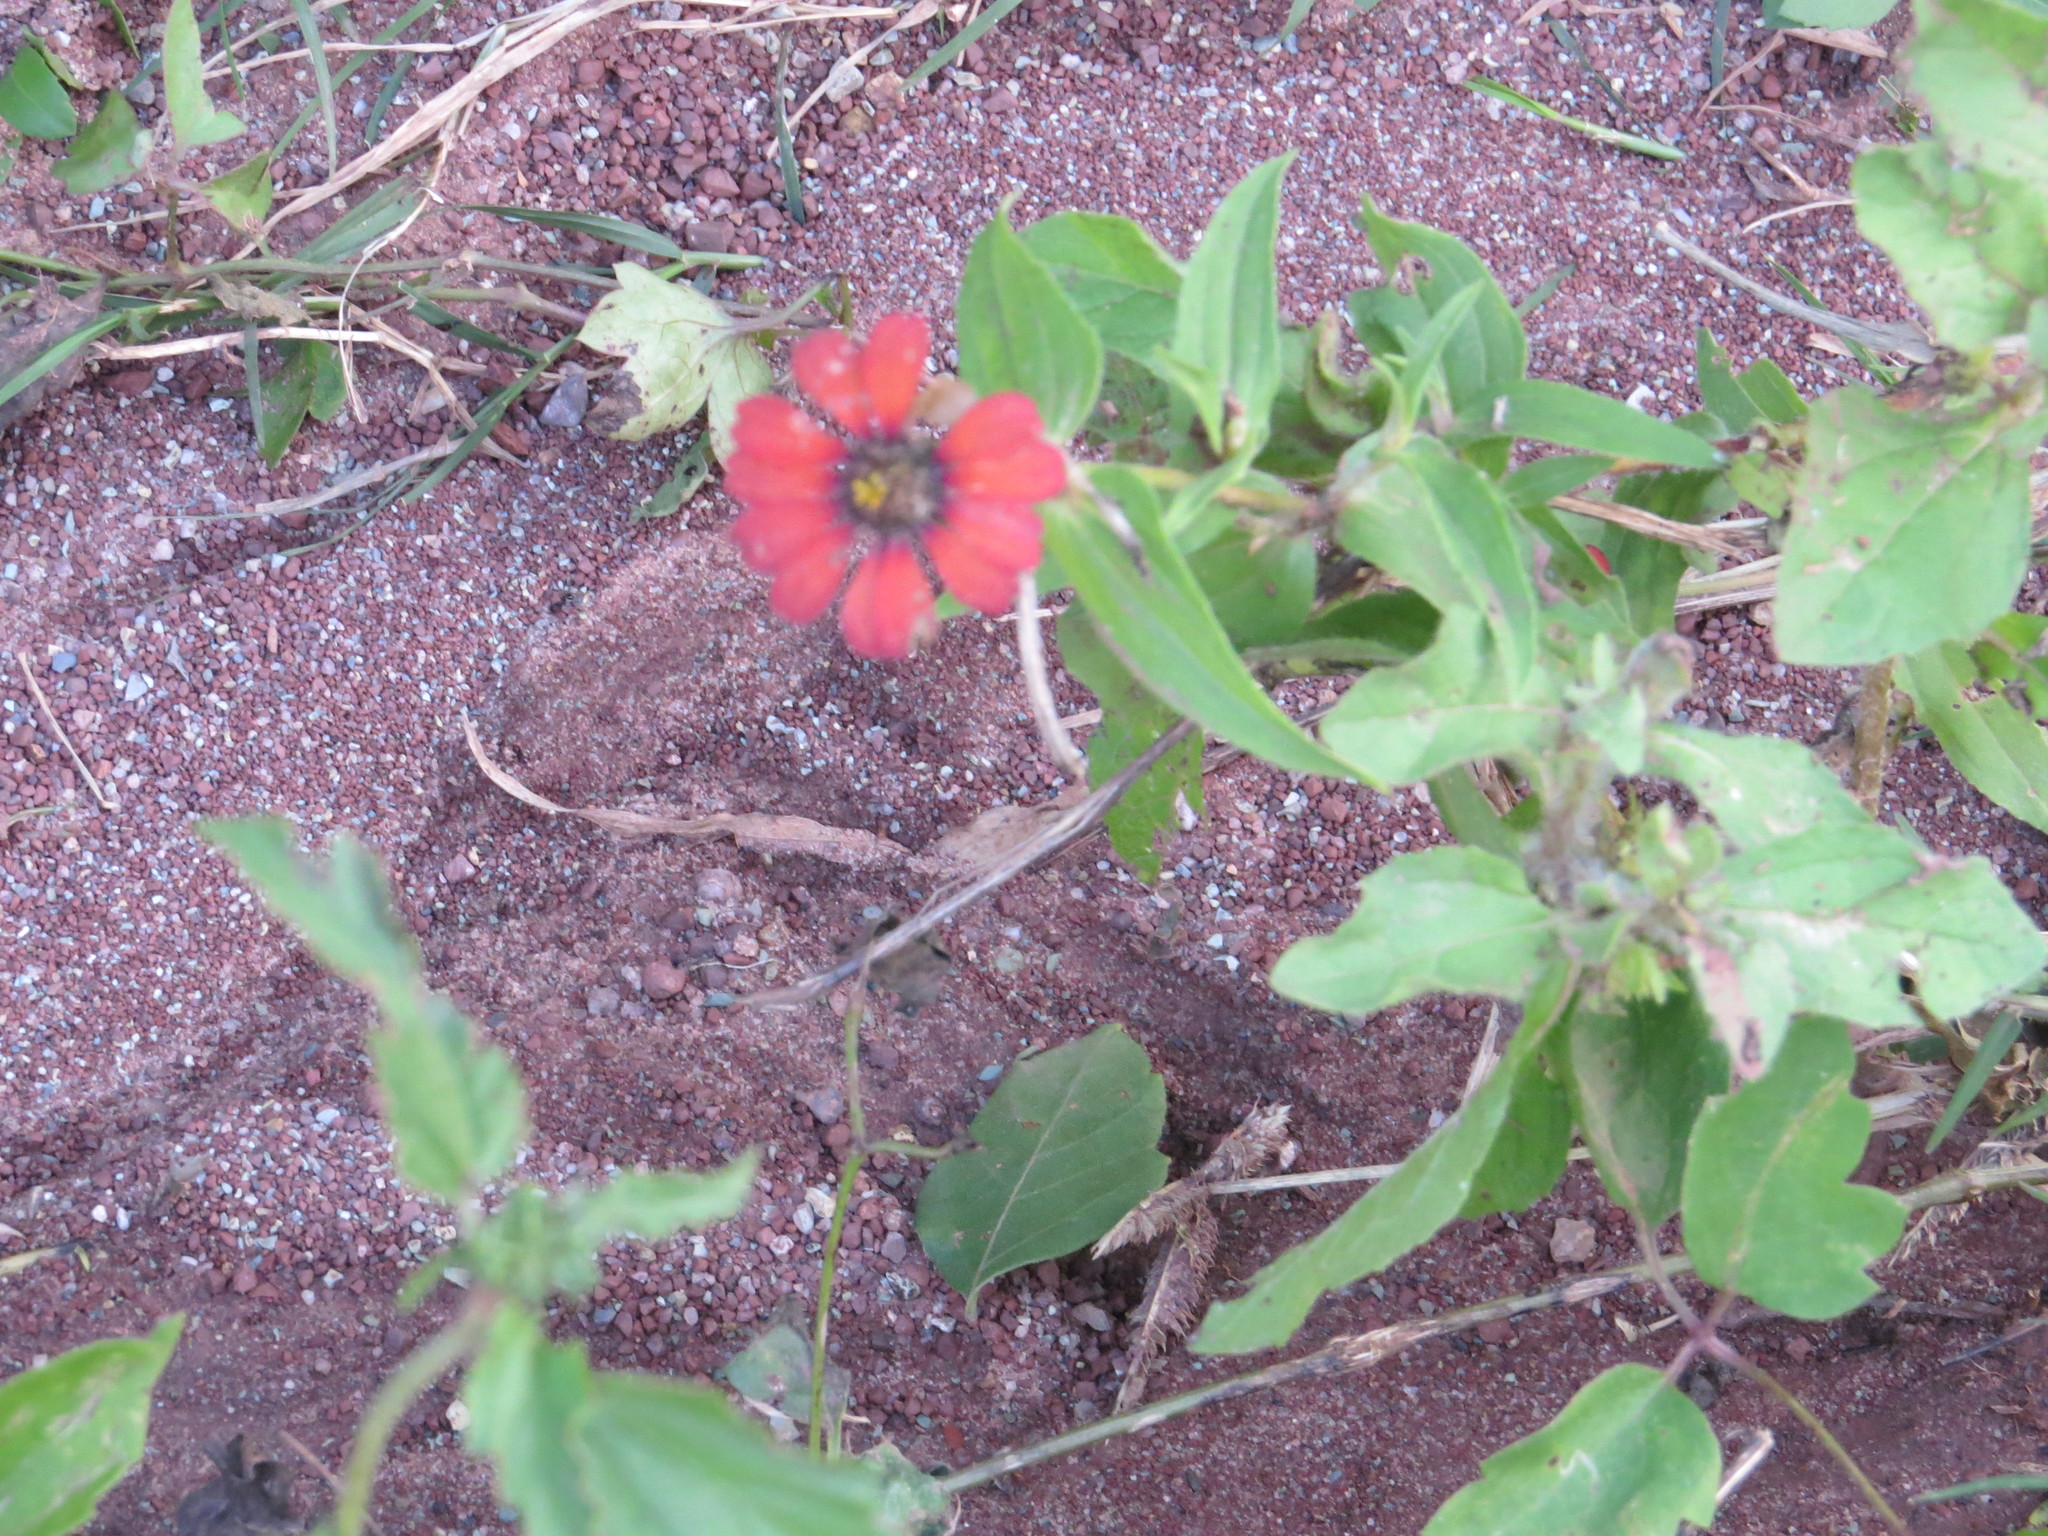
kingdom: Plantae
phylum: Tracheophyta
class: Magnoliopsida
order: Asterales
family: Asteraceae
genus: Zinnia
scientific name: Zinnia peruviana
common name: Peruvian zinnia
